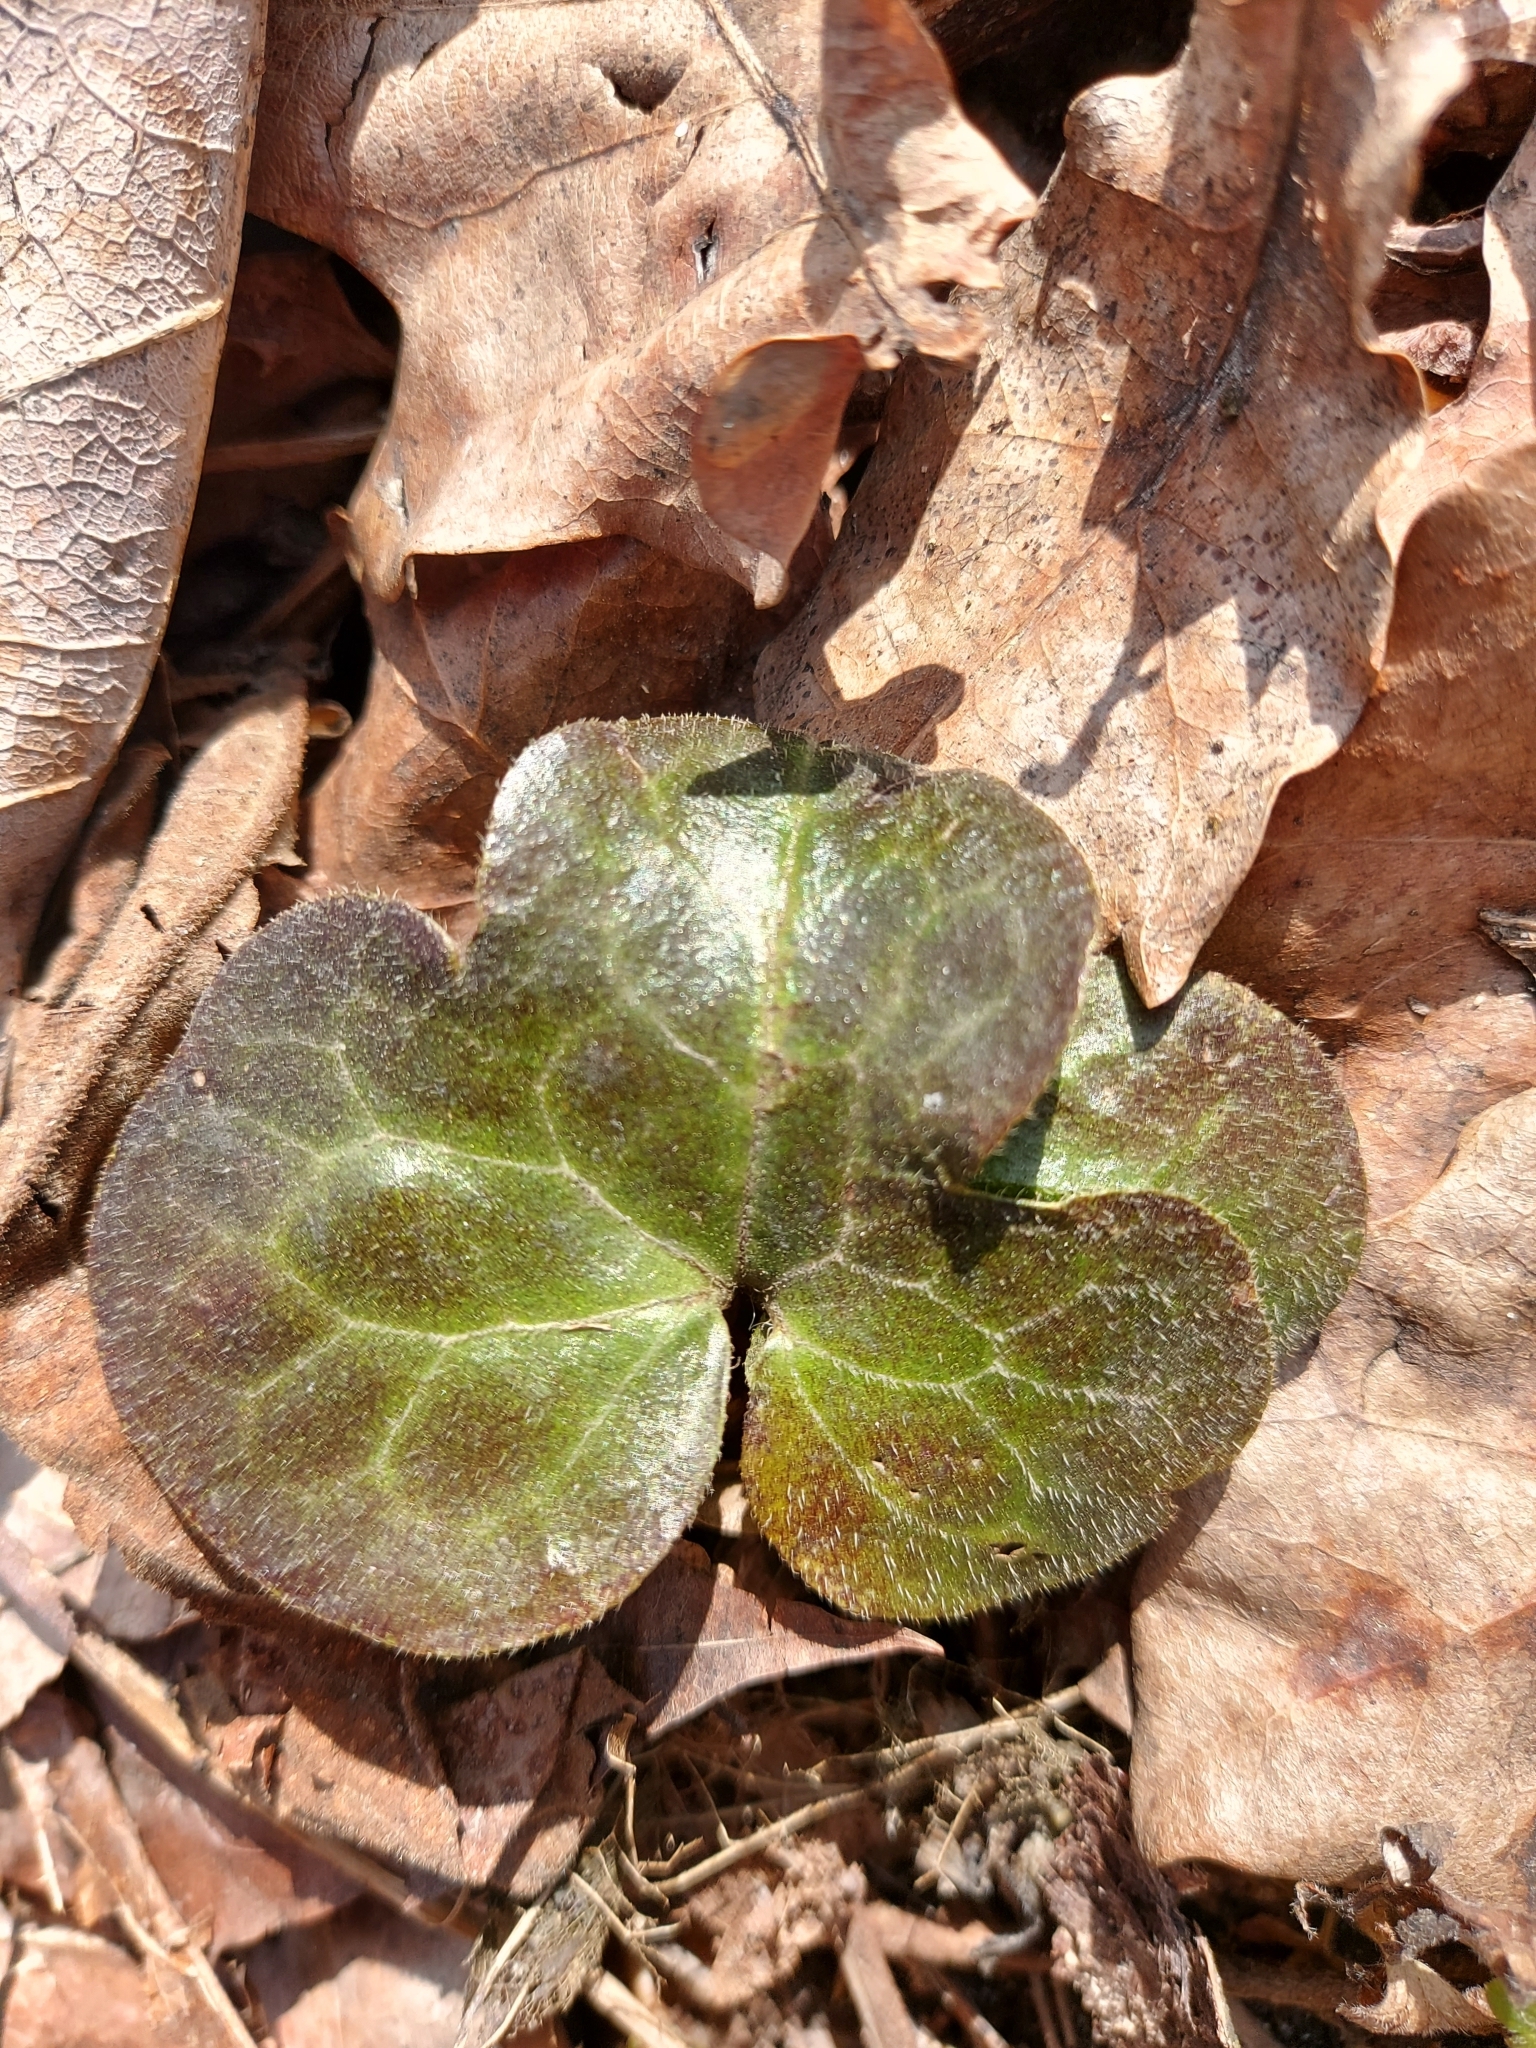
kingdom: Plantae
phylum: Tracheophyta
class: Magnoliopsida
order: Piperales
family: Aristolochiaceae
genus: Asarum
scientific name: Asarum europaeum
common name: Asarabacca
